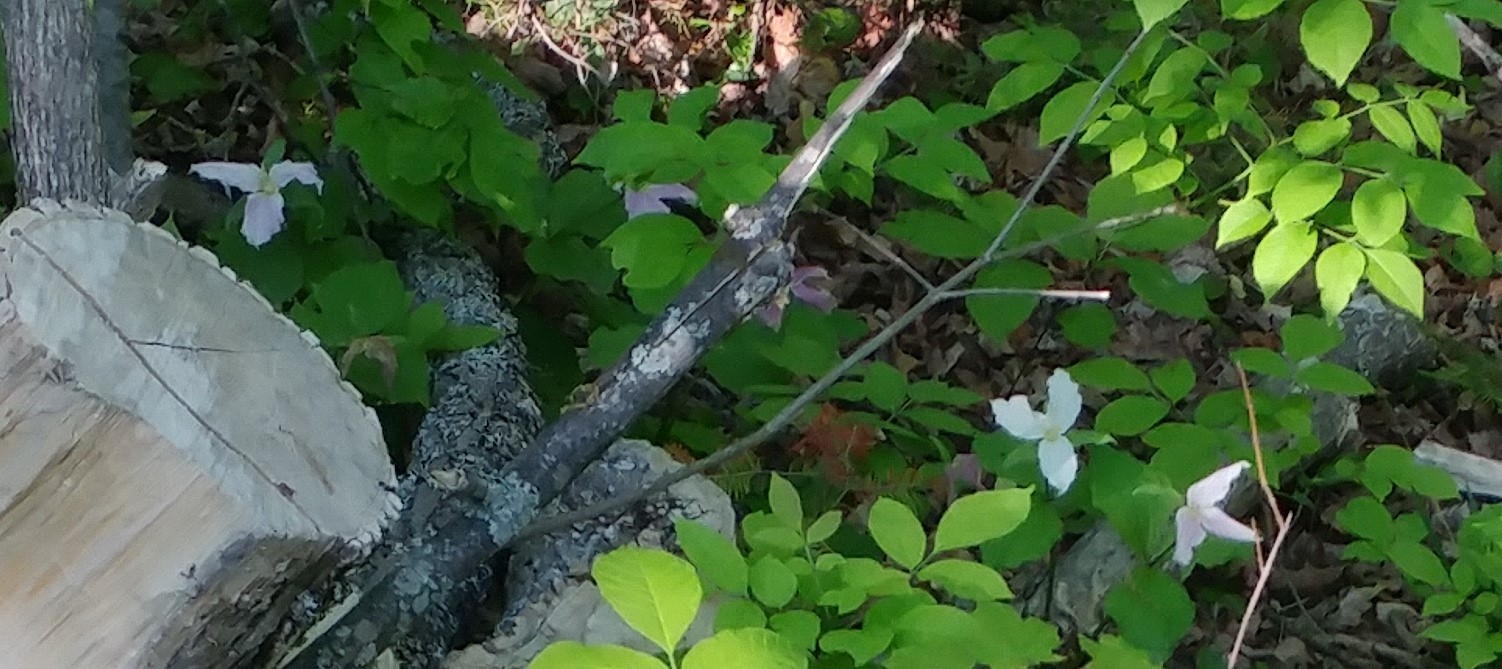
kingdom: Plantae
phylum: Tracheophyta
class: Liliopsida
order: Liliales
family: Melanthiaceae
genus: Trillium
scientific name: Trillium grandiflorum
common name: Great white trillium
